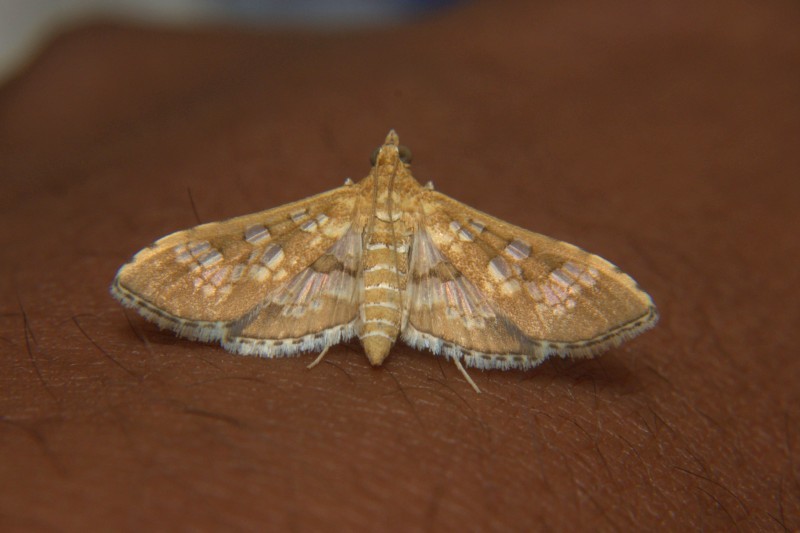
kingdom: Animalia
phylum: Arthropoda
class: Insecta
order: Lepidoptera
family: Crambidae
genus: Sameodes
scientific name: Sameodes cancellalis
